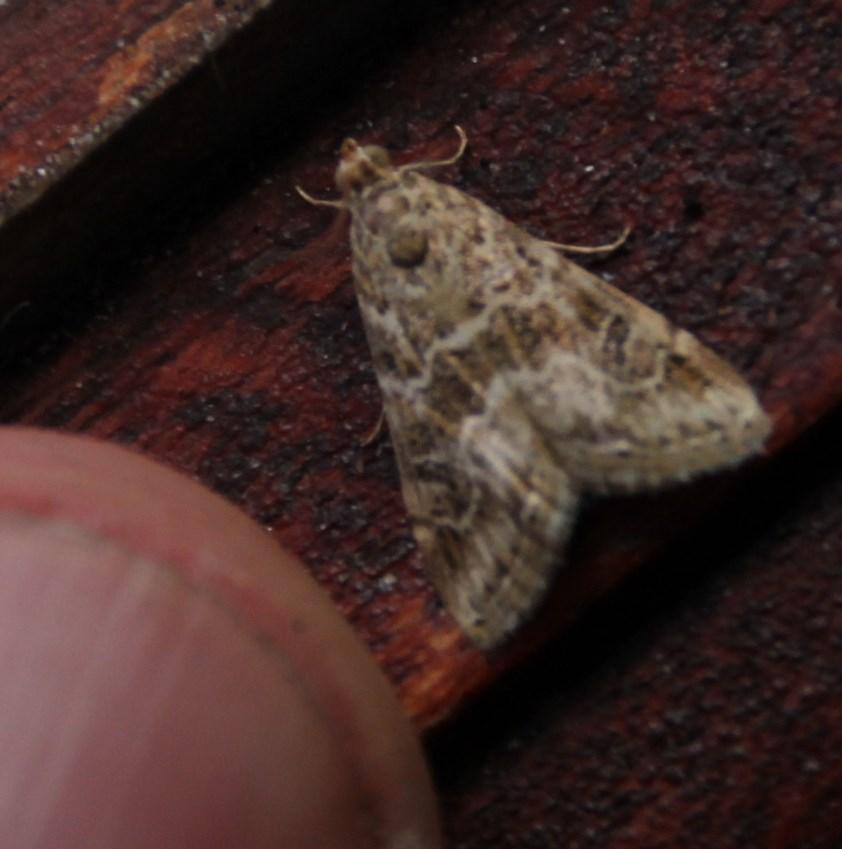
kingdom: Animalia
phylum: Arthropoda
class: Insecta
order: Lepidoptera
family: Crambidae
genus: Hellula
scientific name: Hellula undalis
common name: Cabbage webworm
